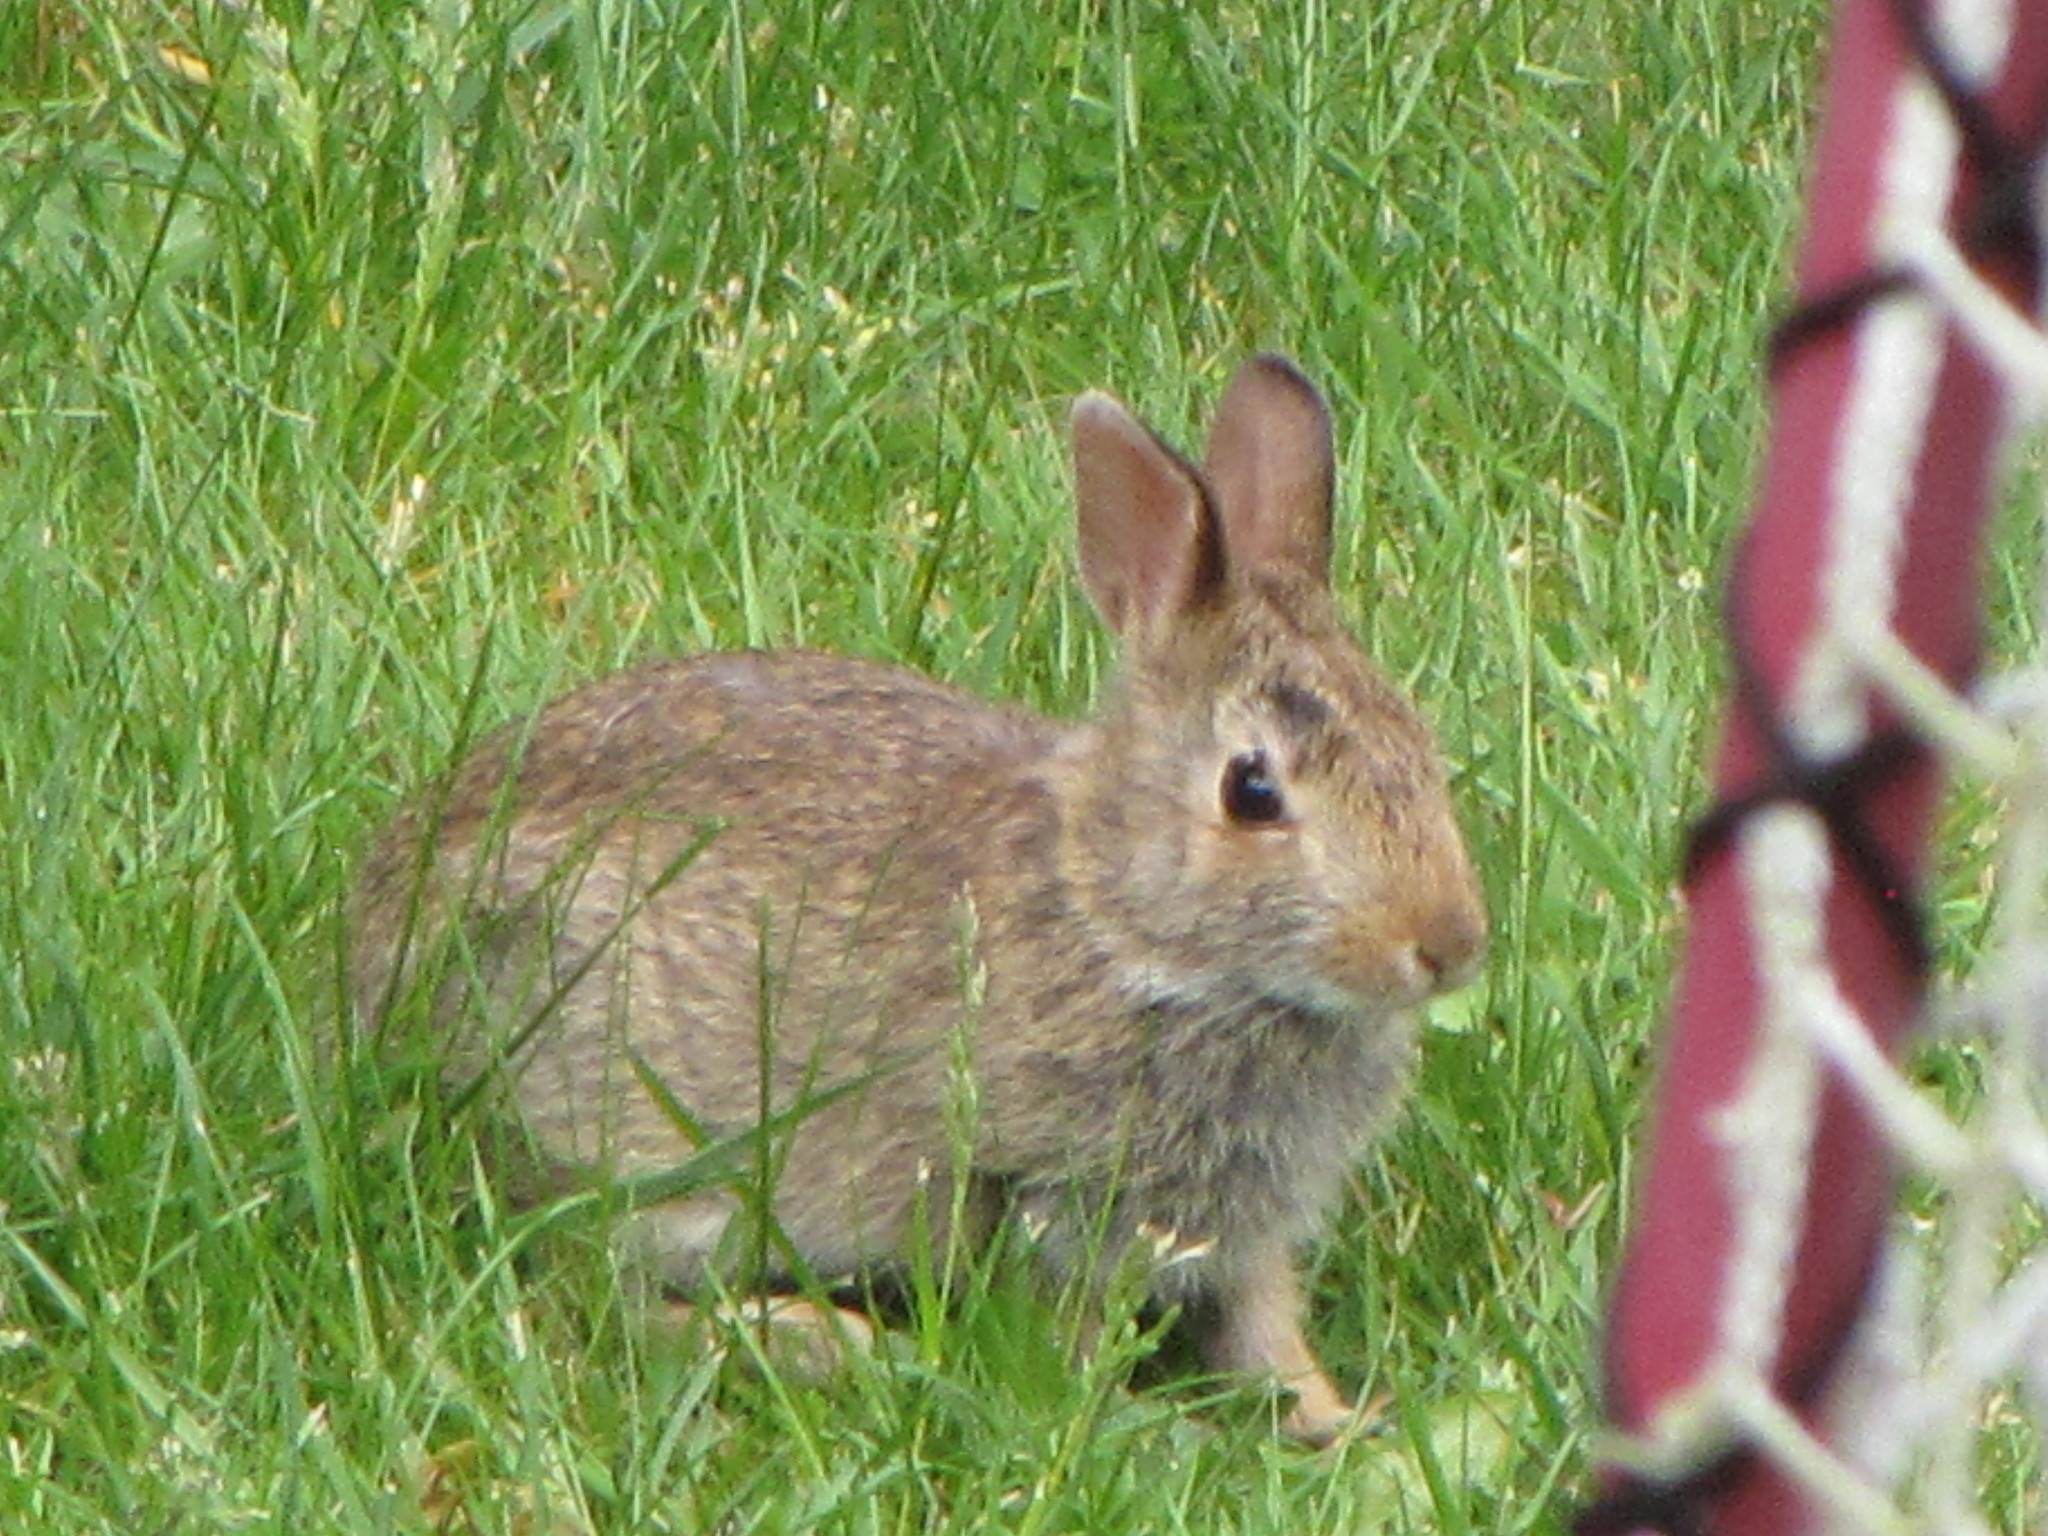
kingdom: Animalia
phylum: Chordata
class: Mammalia
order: Lagomorpha
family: Leporidae
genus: Sylvilagus
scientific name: Sylvilagus floridanus
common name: Eastern cottontail
